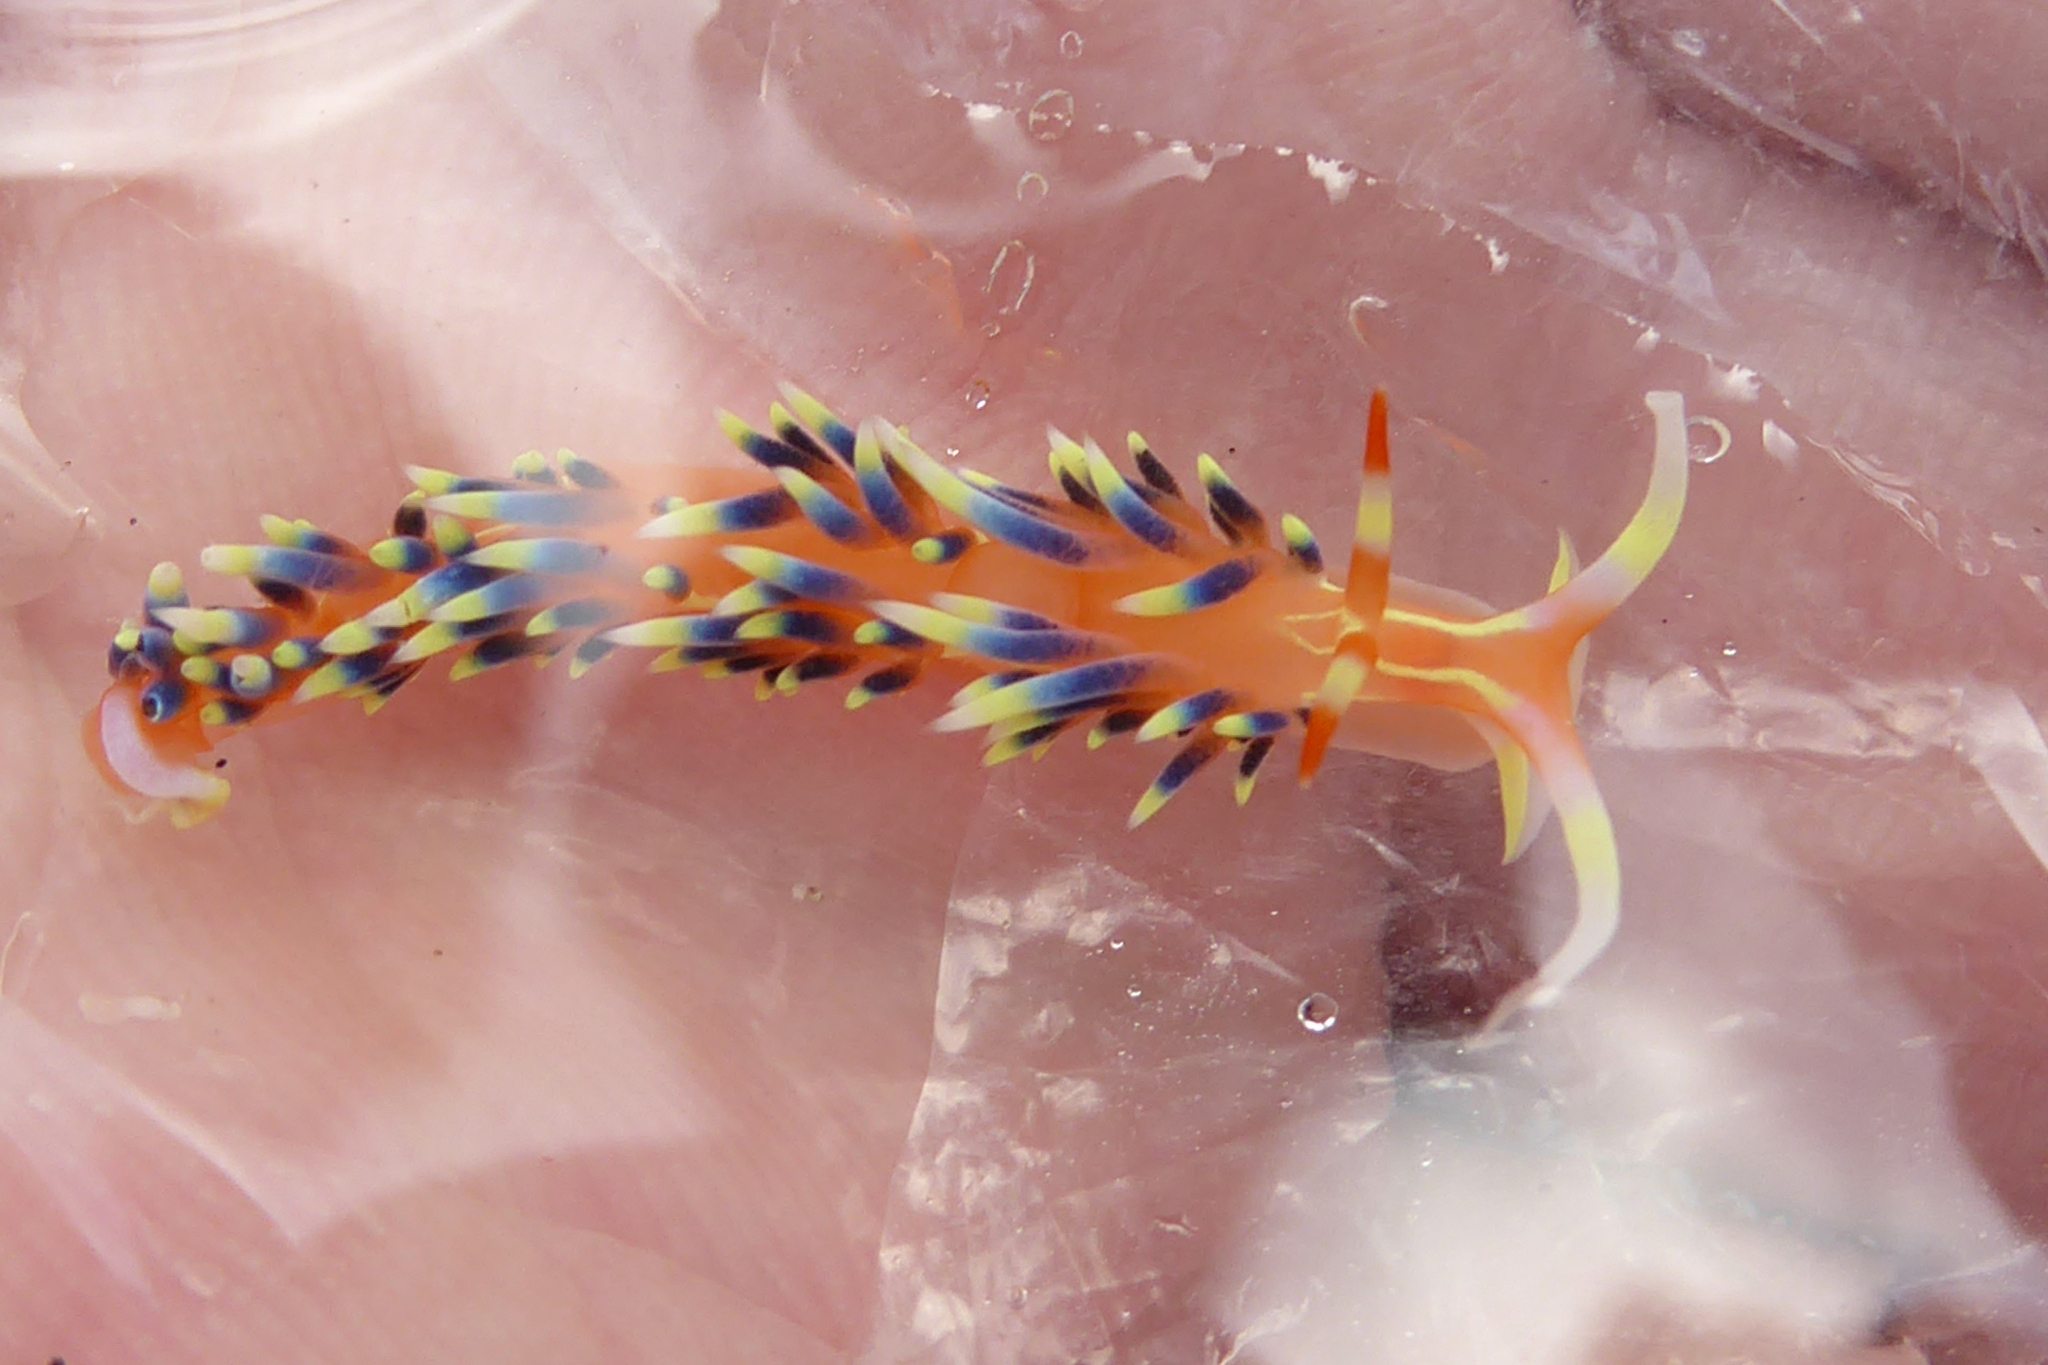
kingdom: Animalia
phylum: Mollusca
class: Gastropoda
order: Nudibranchia
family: Facelinidae
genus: Caloria
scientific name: Caloria indica
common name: Sea slug
